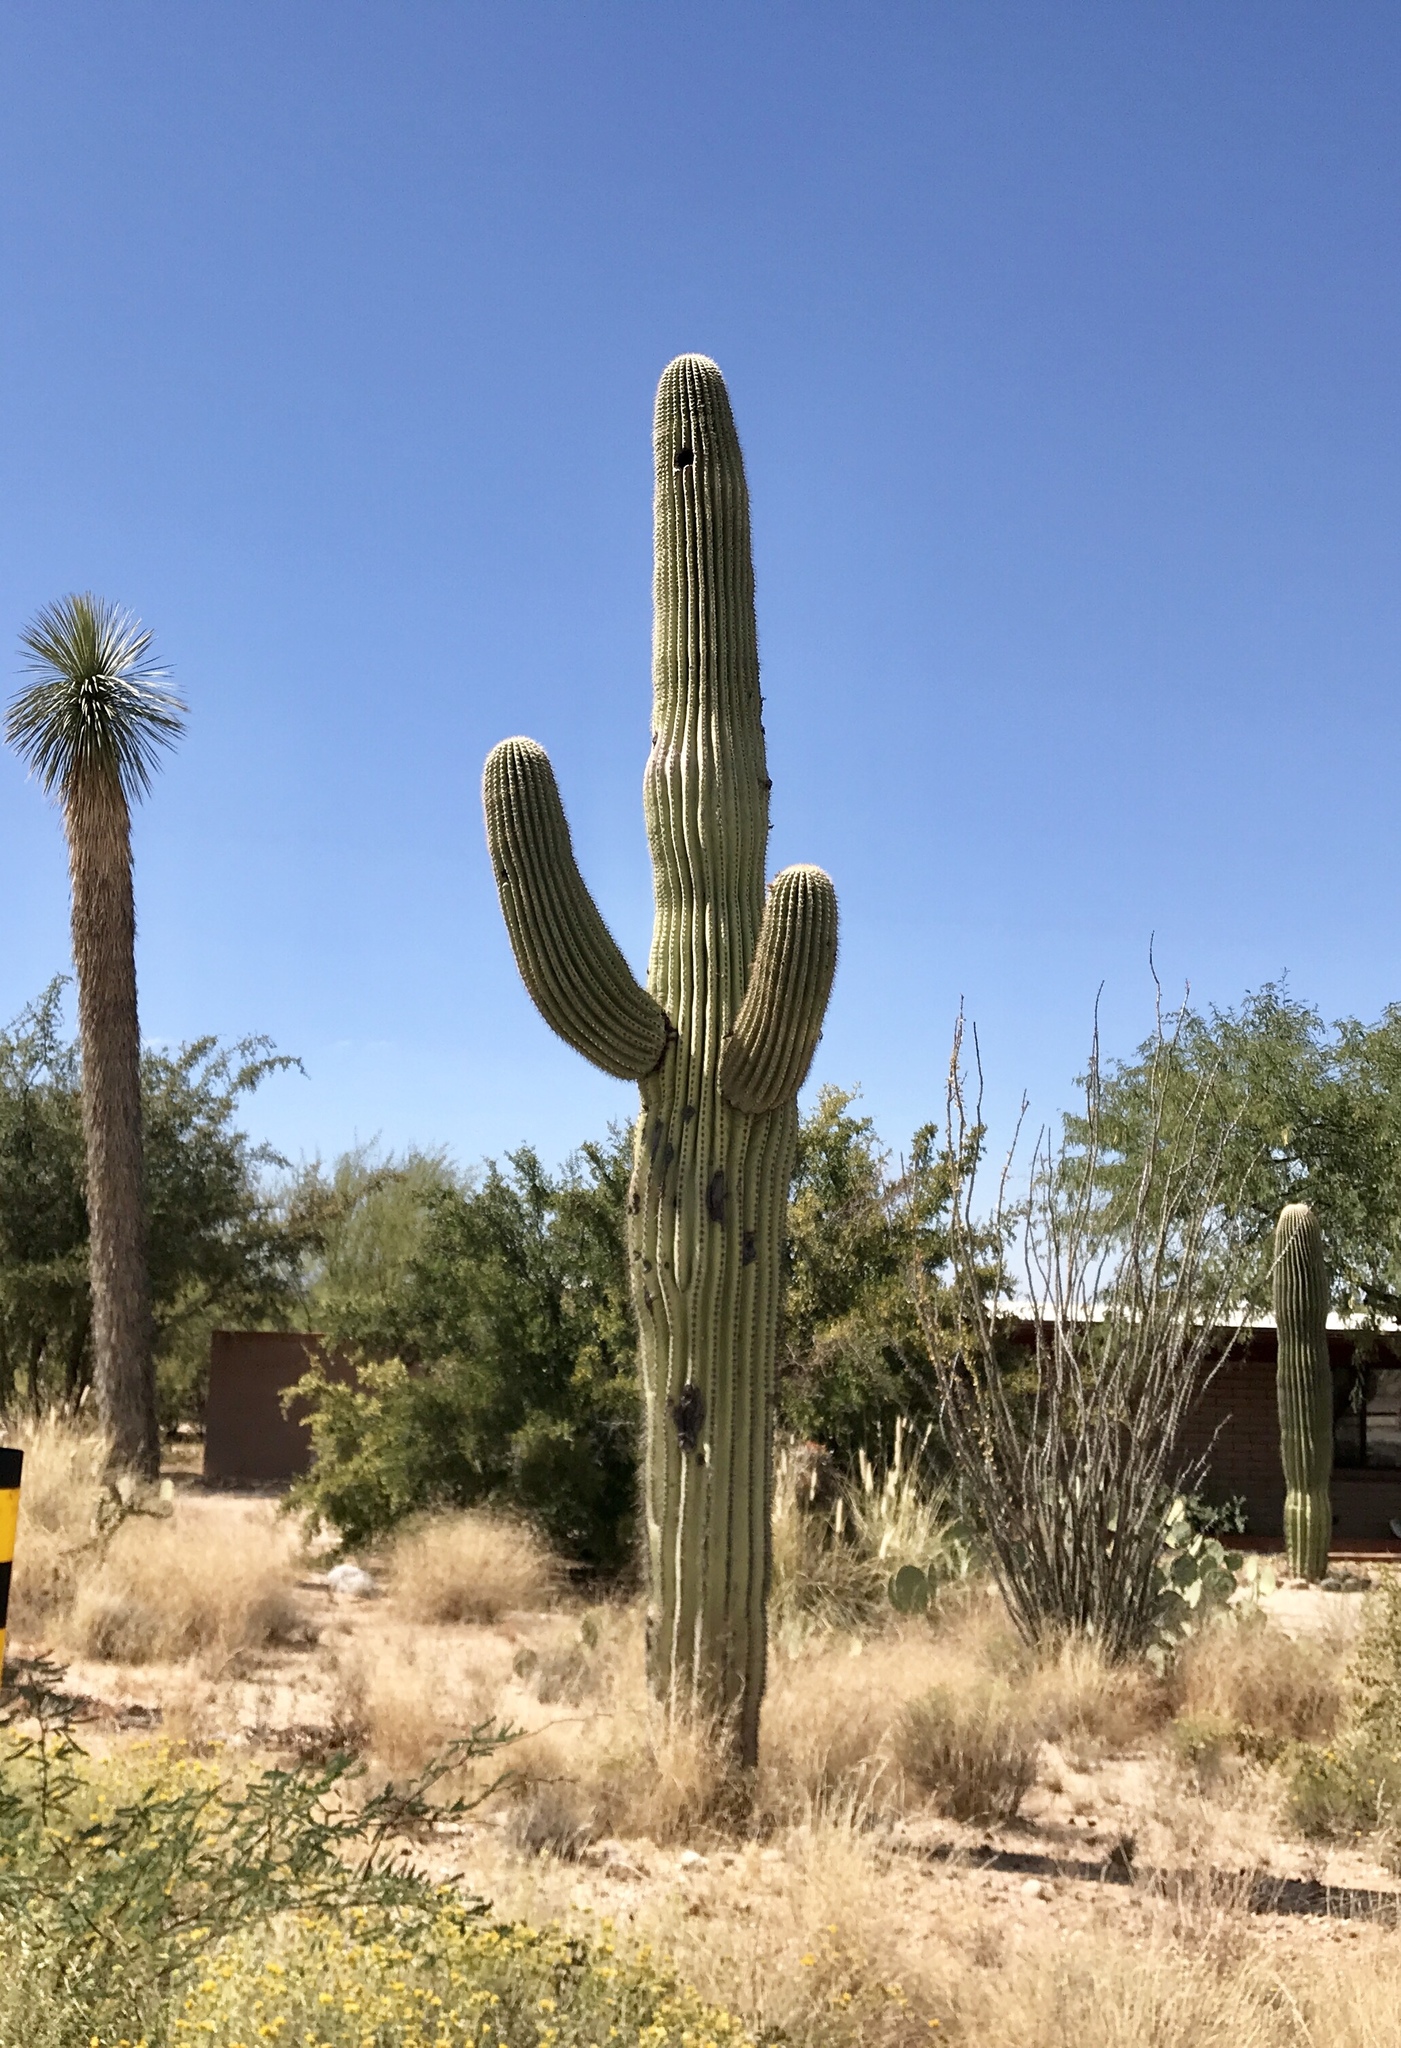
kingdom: Plantae
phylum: Tracheophyta
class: Magnoliopsida
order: Caryophyllales
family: Cactaceae
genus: Carnegiea
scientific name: Carnegiea gigantea
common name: Saguaro
